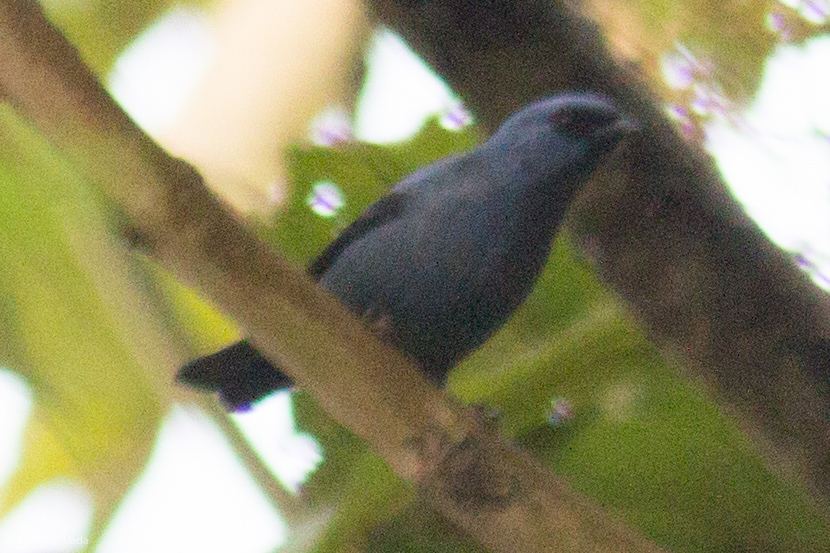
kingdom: Animalia
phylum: Chordata
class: Aves
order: Passeriformes
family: Thraupidae
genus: Tangara
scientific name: Tangara vassorii
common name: Blue-and-black tanager
